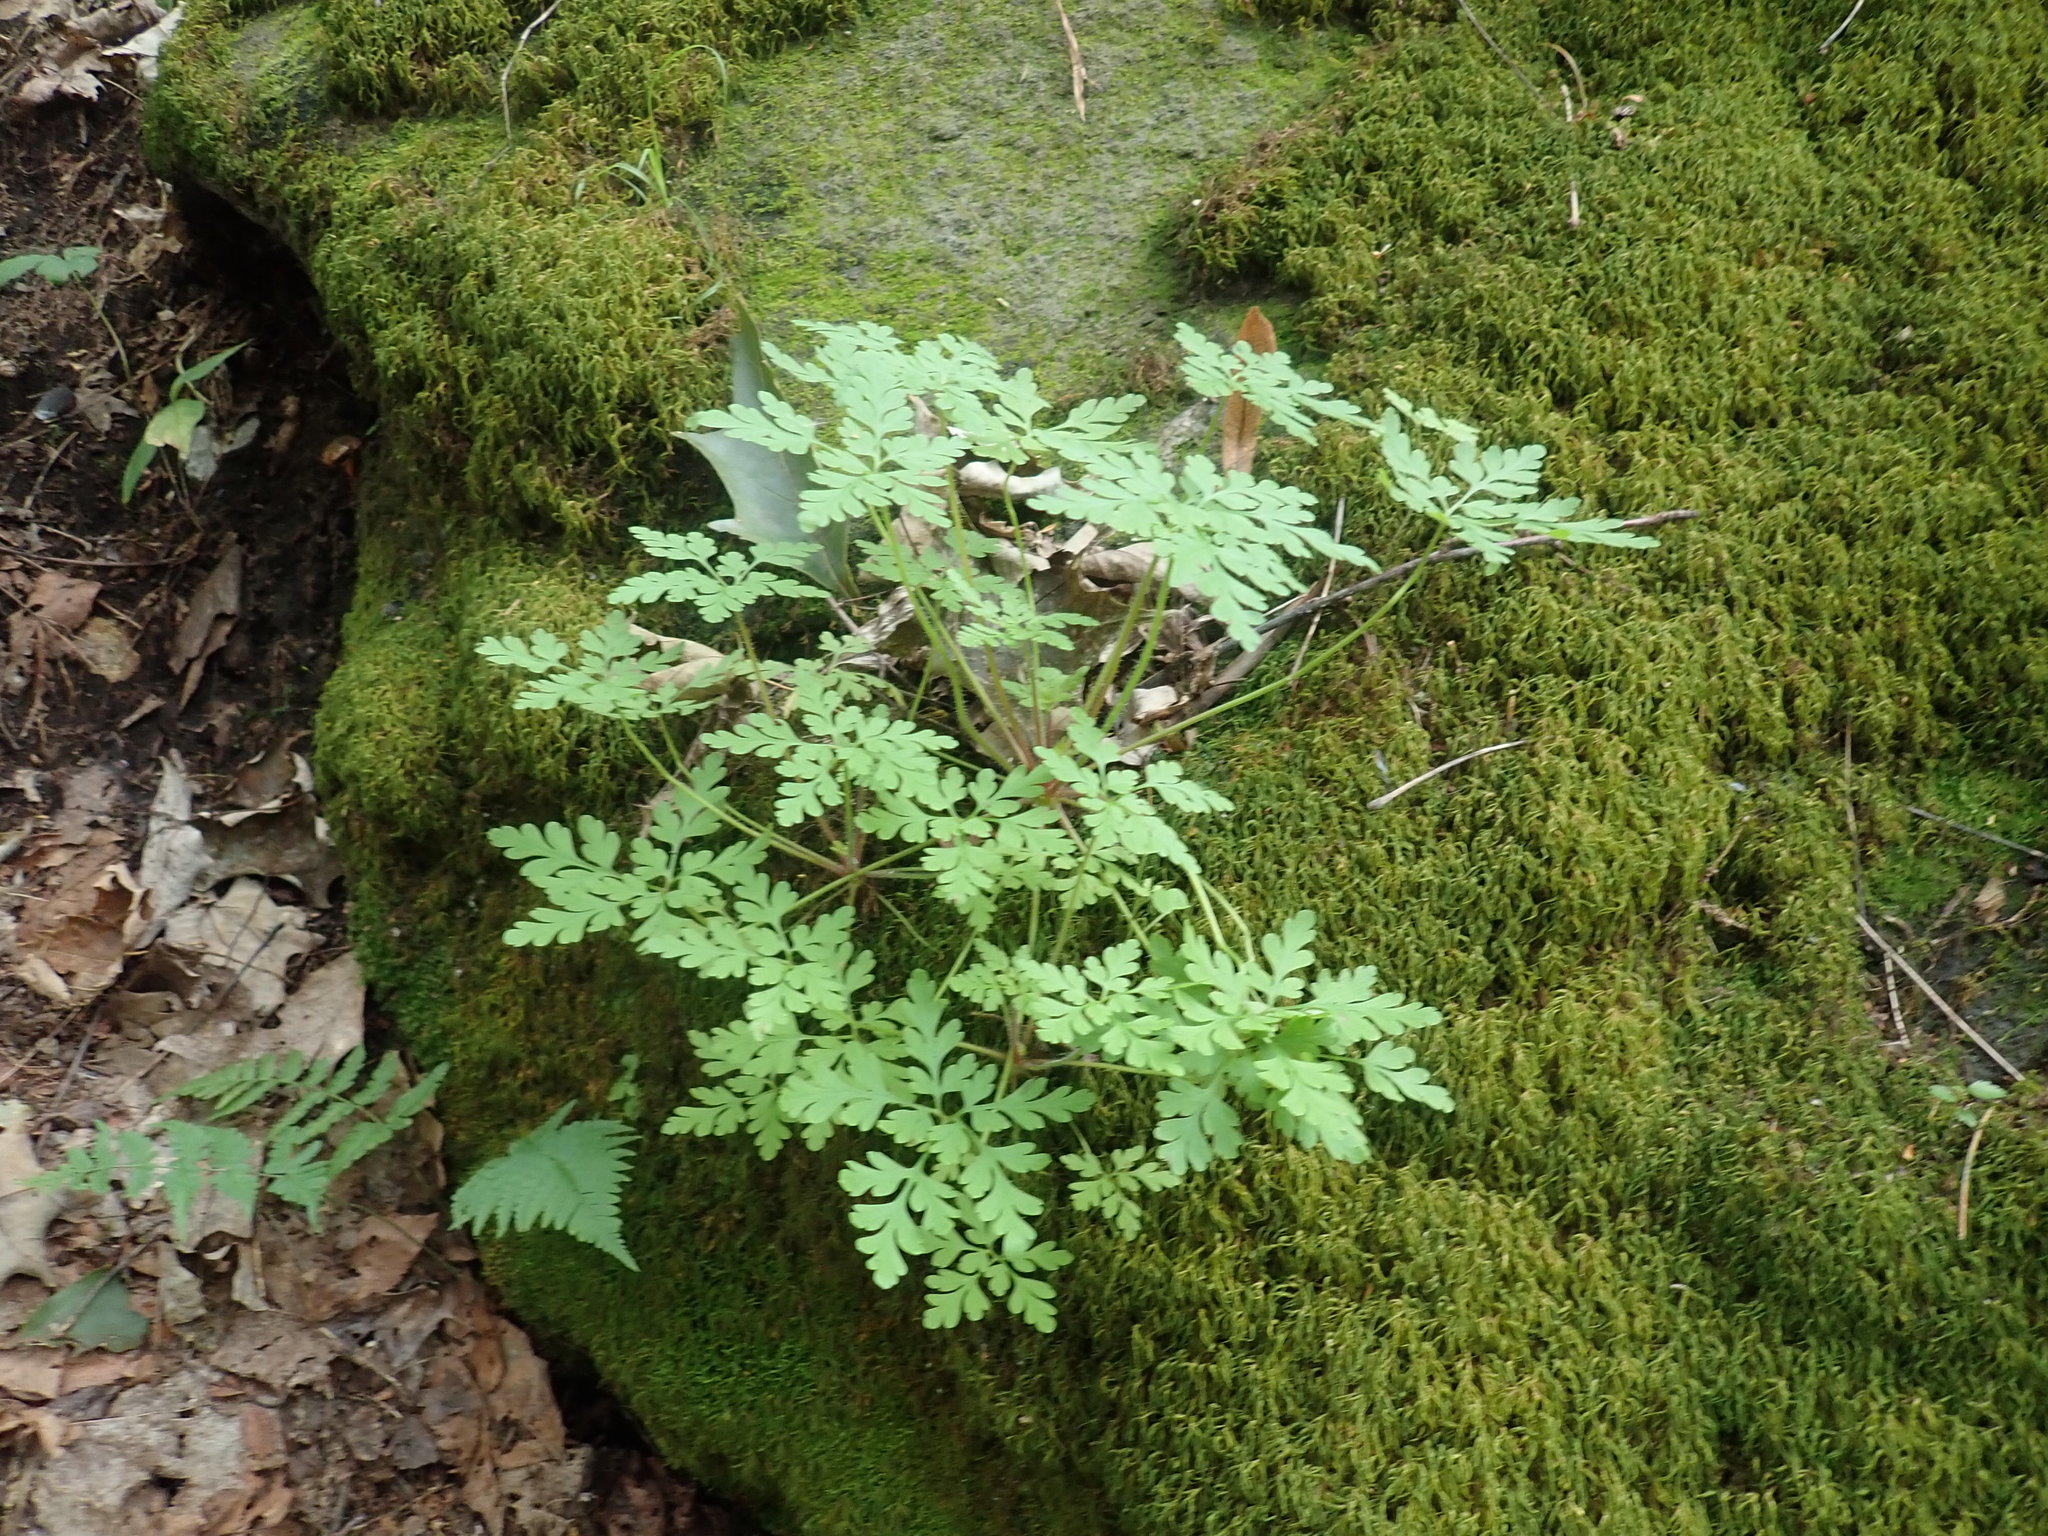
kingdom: Plantae
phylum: Tracheophyta
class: Magnoliopsida
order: Geraniales
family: Geraniaceae
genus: Geranium
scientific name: Geranium robertianum
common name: Herb-robert
